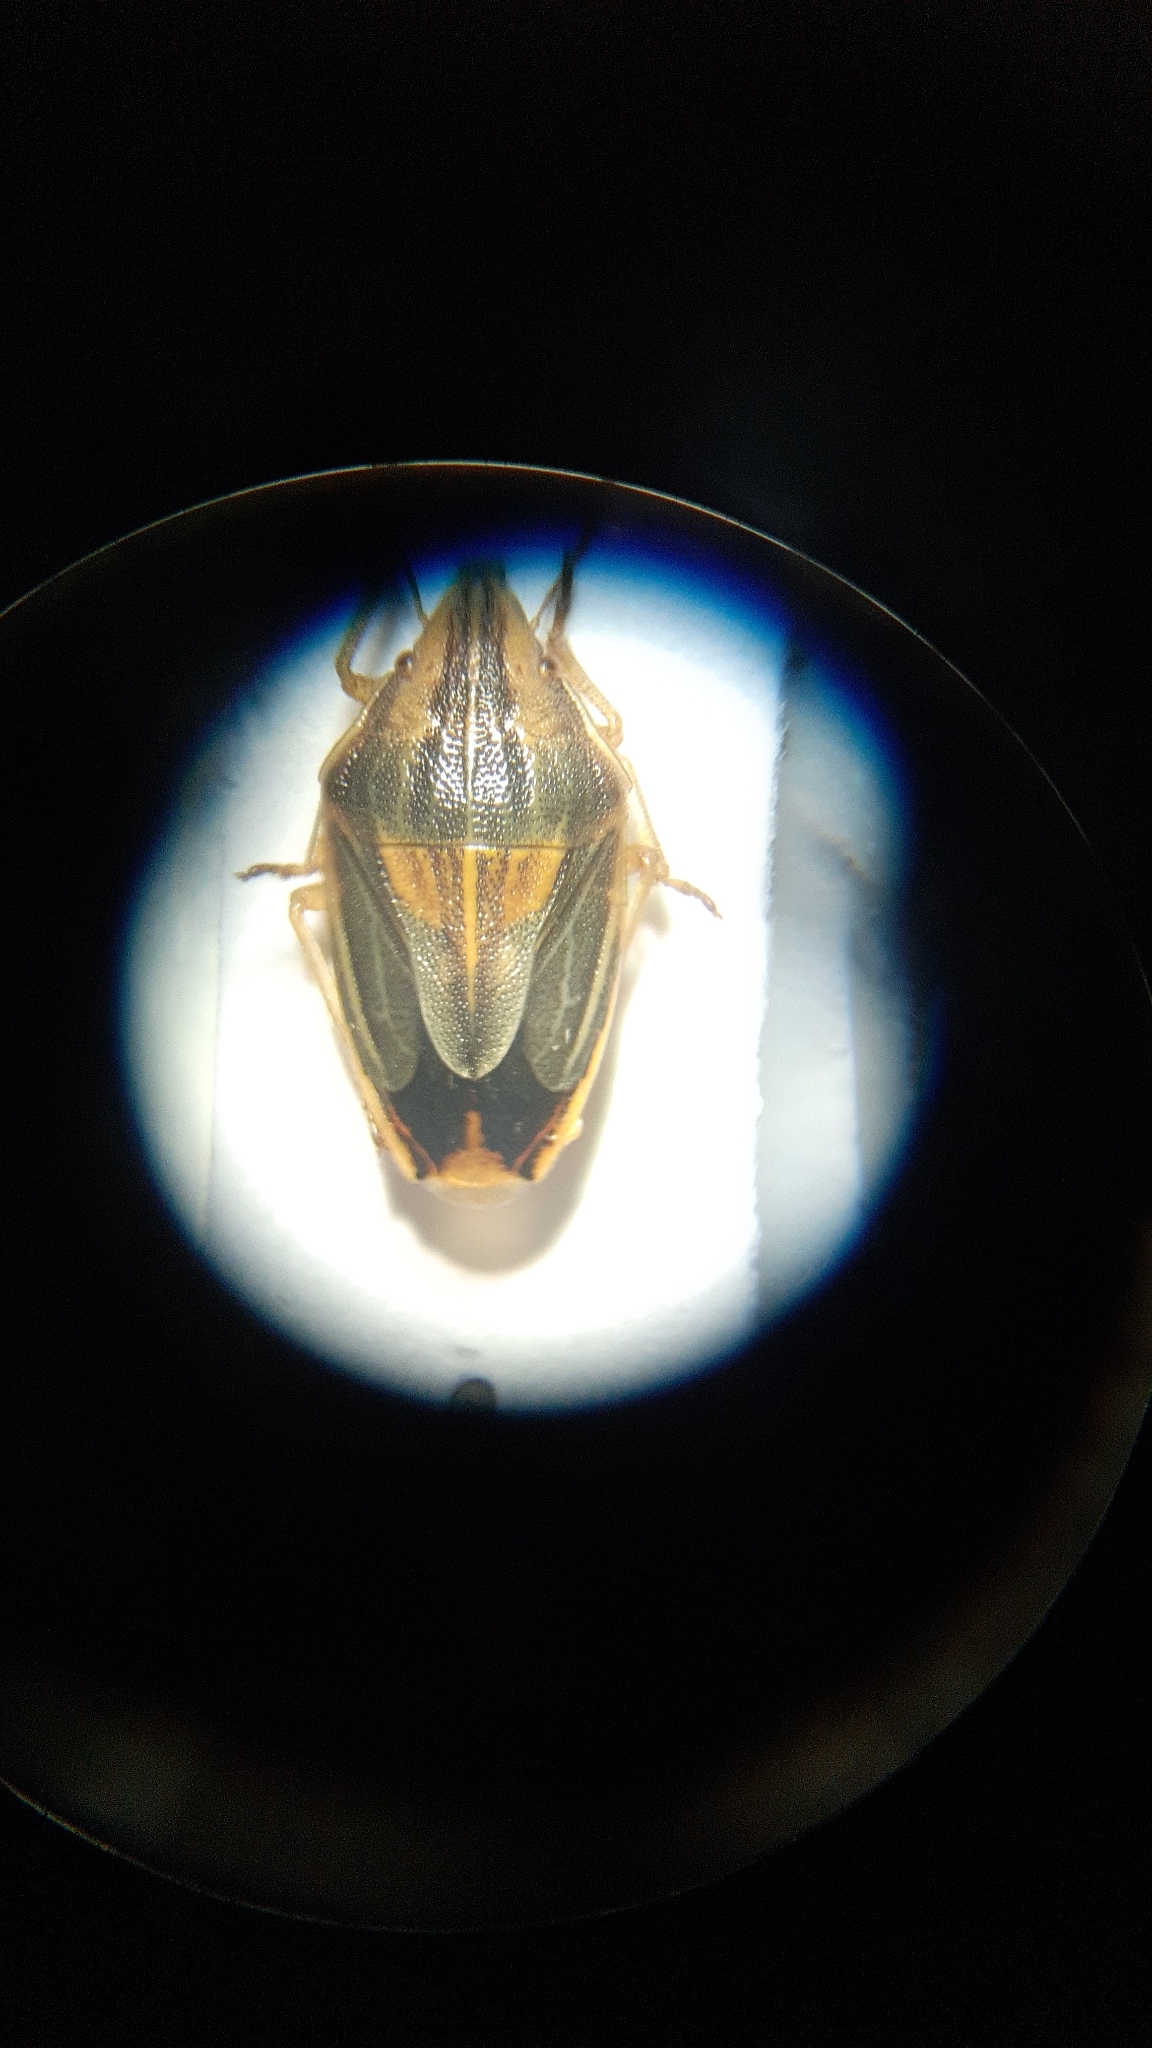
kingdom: Animalia
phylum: Arthropoda
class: Insecta
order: Hemiptera
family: Pentatomidae
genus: Aelia
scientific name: Aelia acuminata
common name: Bishop's mitre
